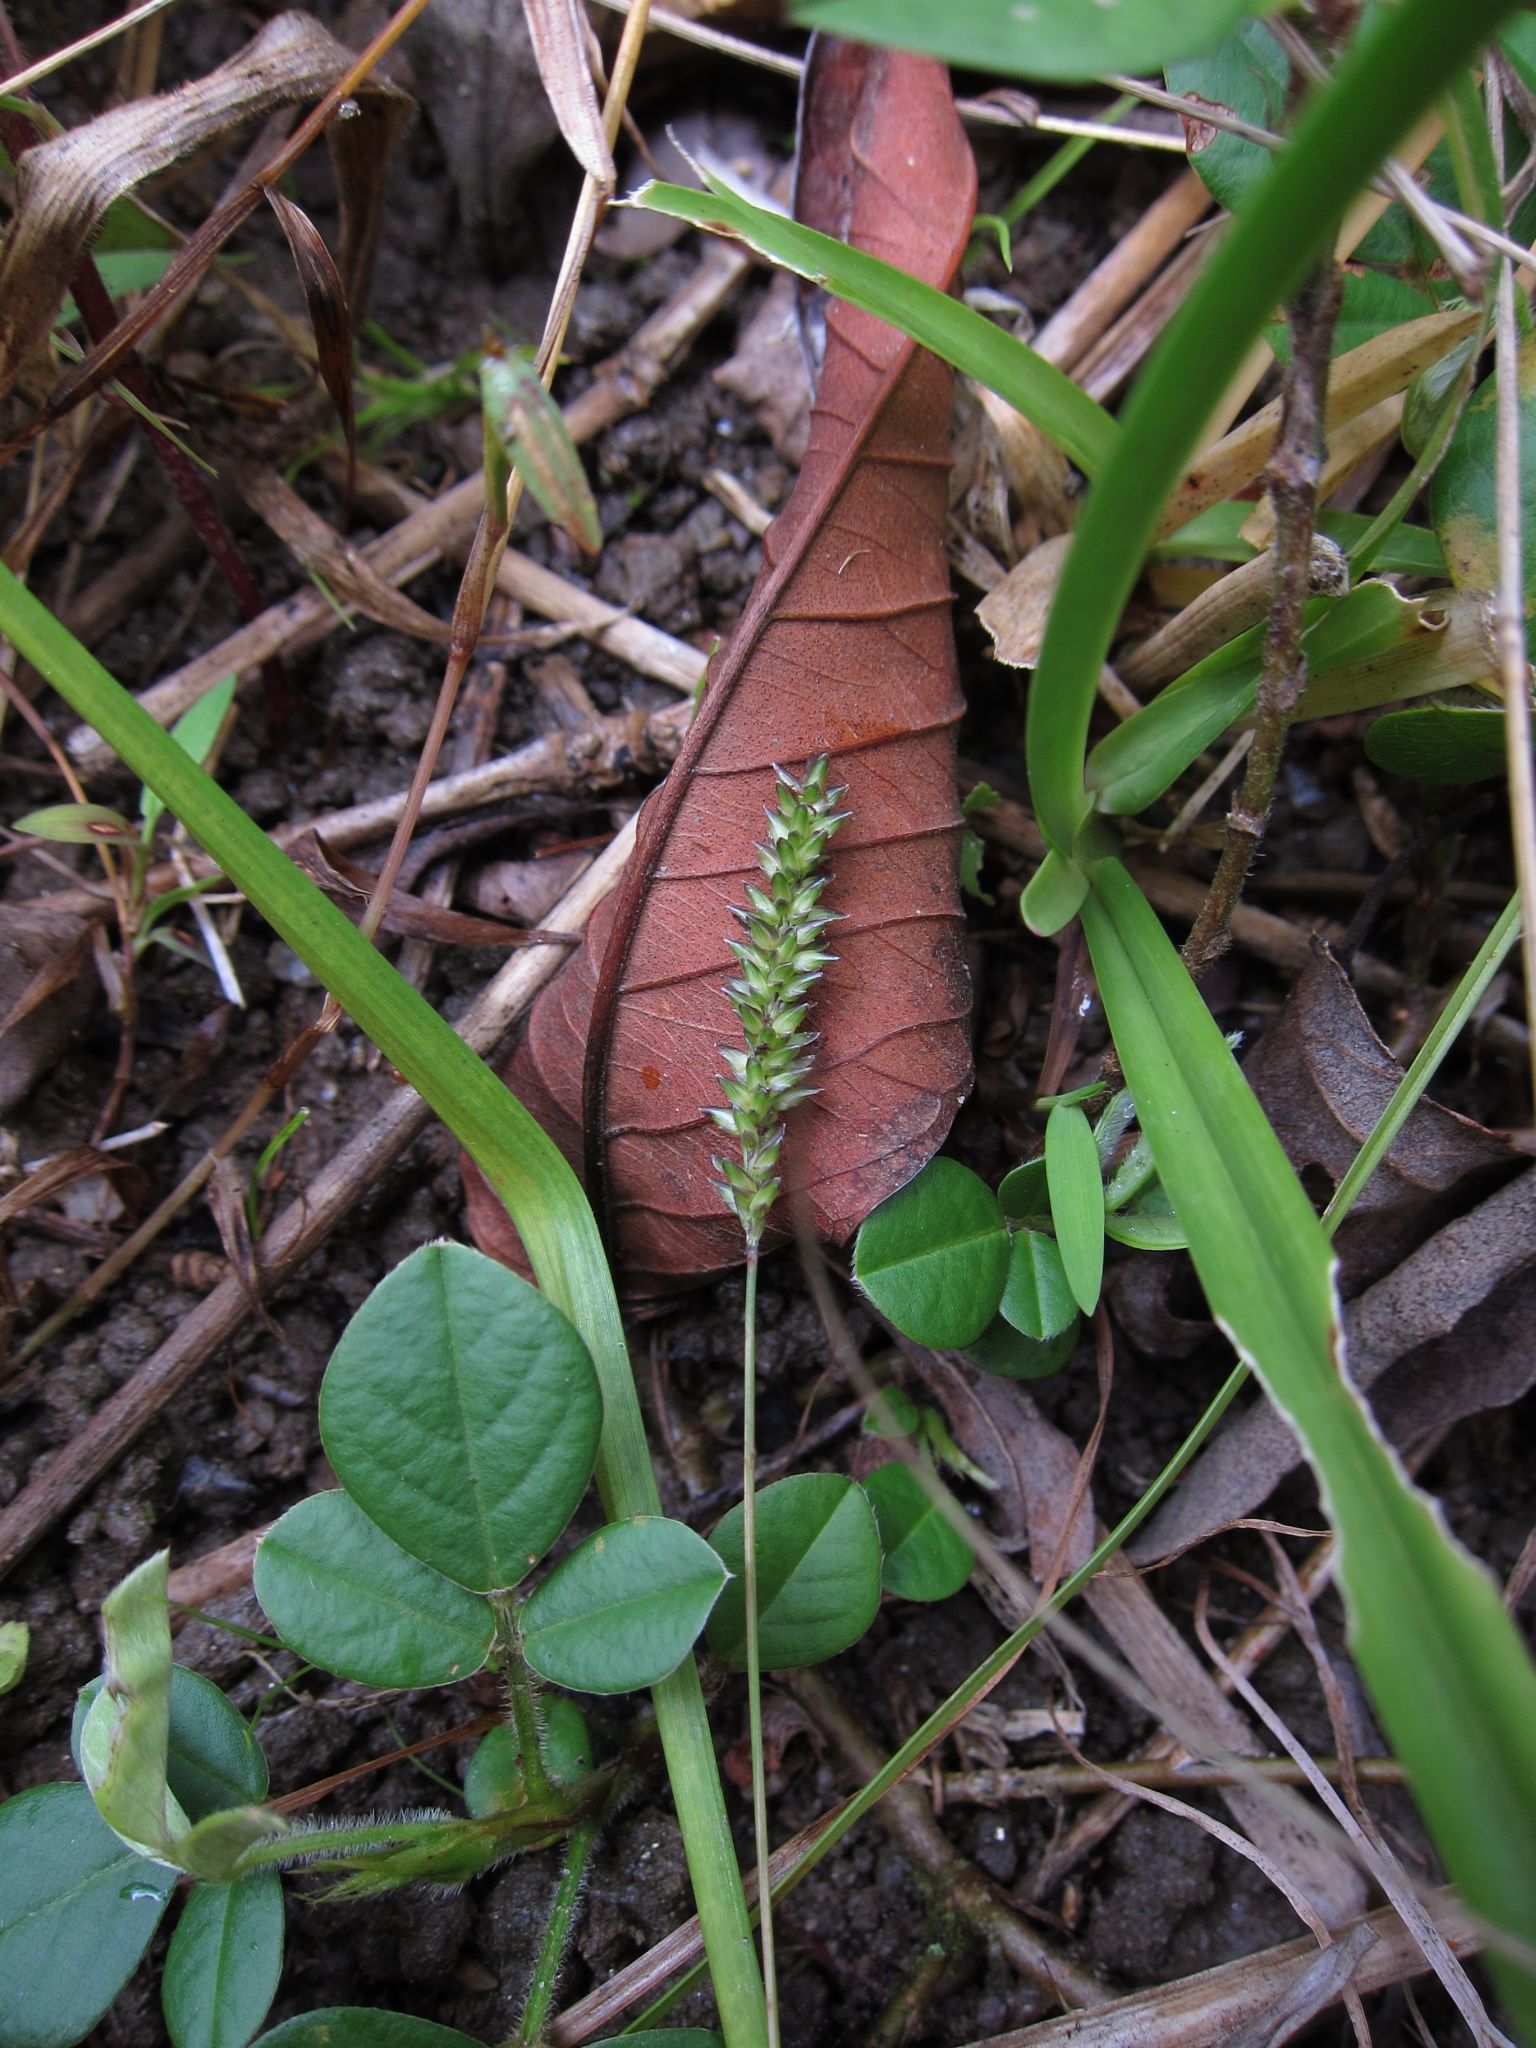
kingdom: Plantae
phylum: Tracheophyta
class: Liliopsida
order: Poales
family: Poaceae
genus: Sacciolepis
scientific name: Sacciolepis indica
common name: Glenwoodgrass
